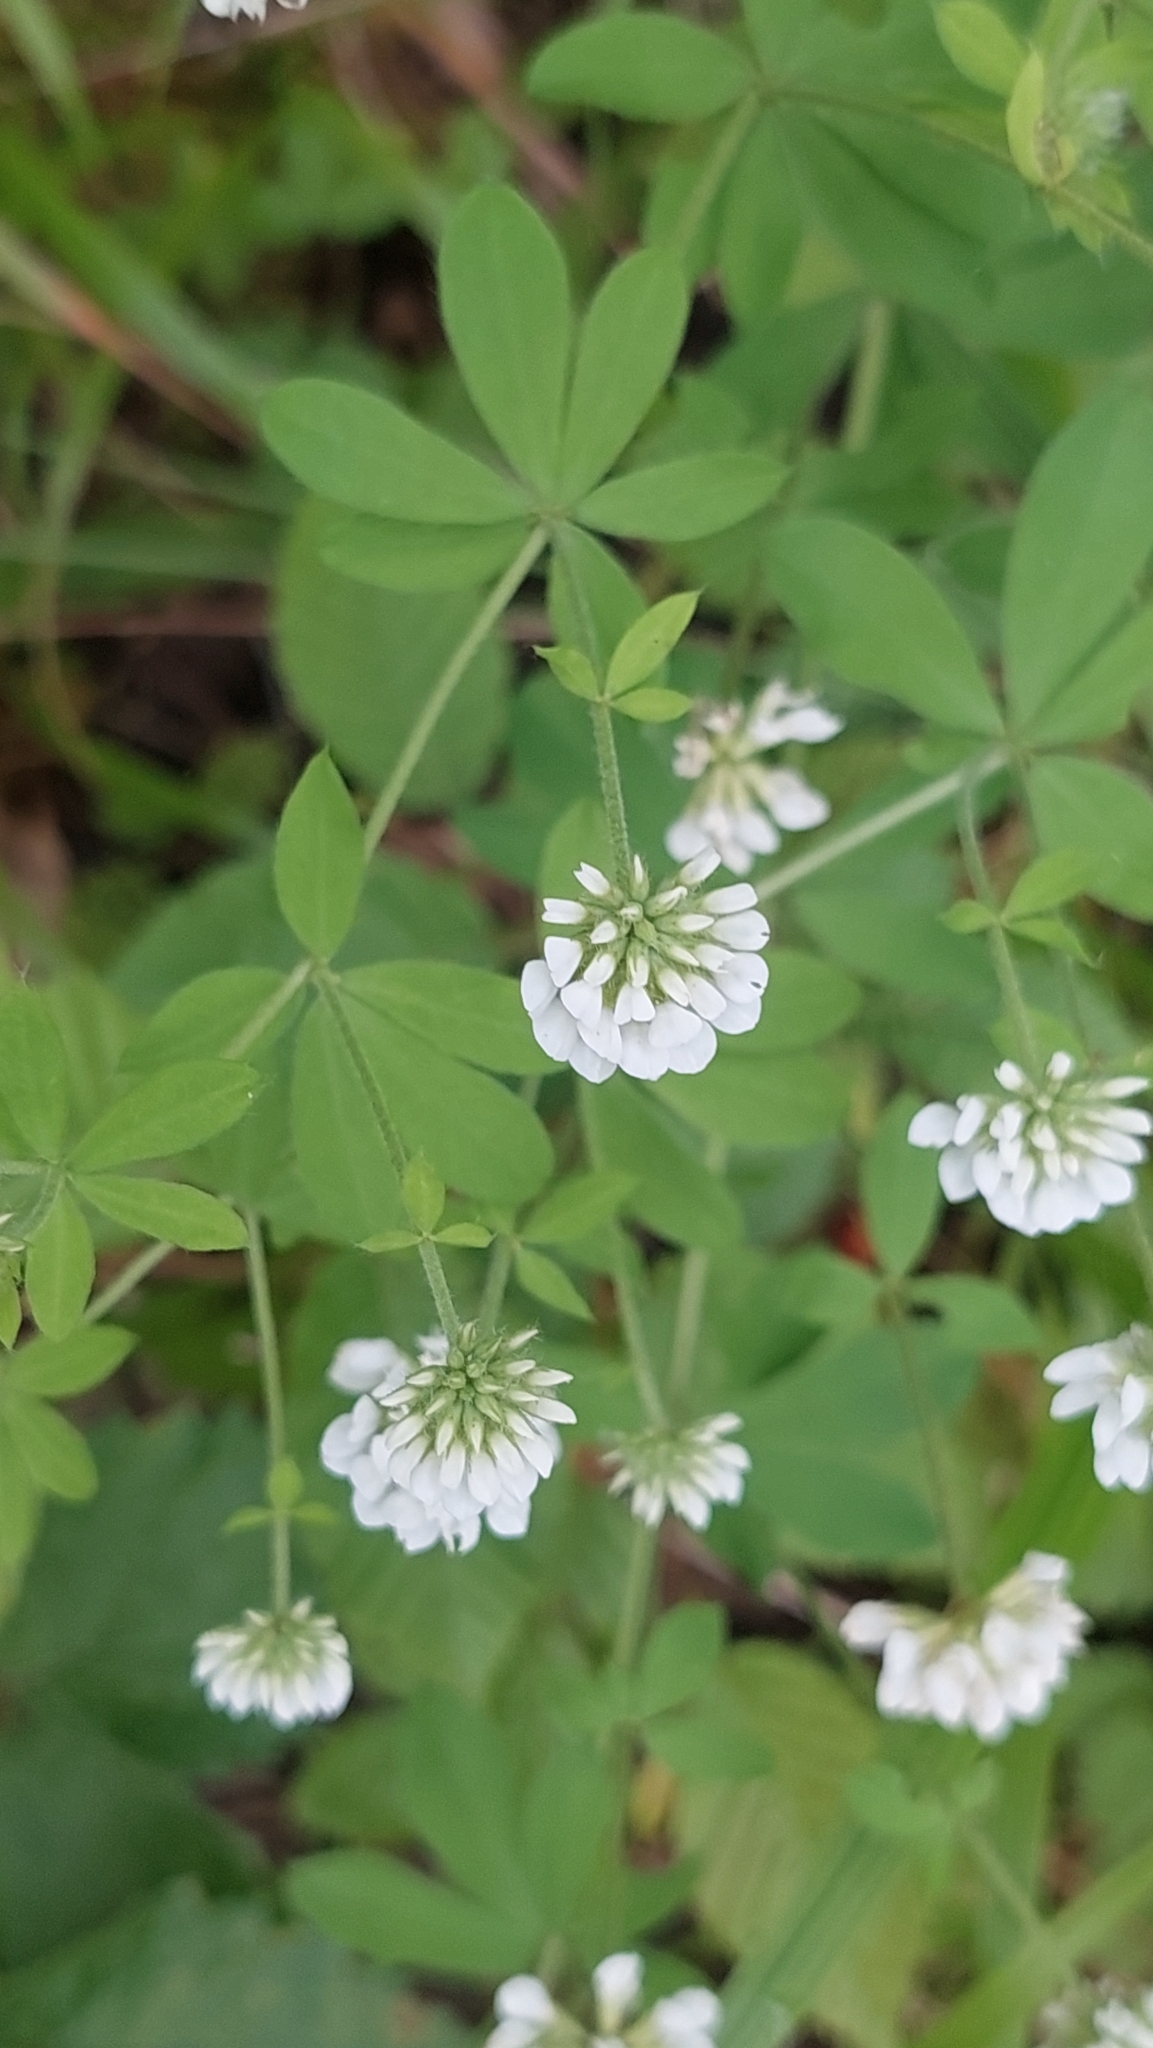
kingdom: Plantae
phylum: Tracheophyta
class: Magnoliopsida
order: Fabales
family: Fabaceae
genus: Lotus
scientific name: Lotus herbaceus
